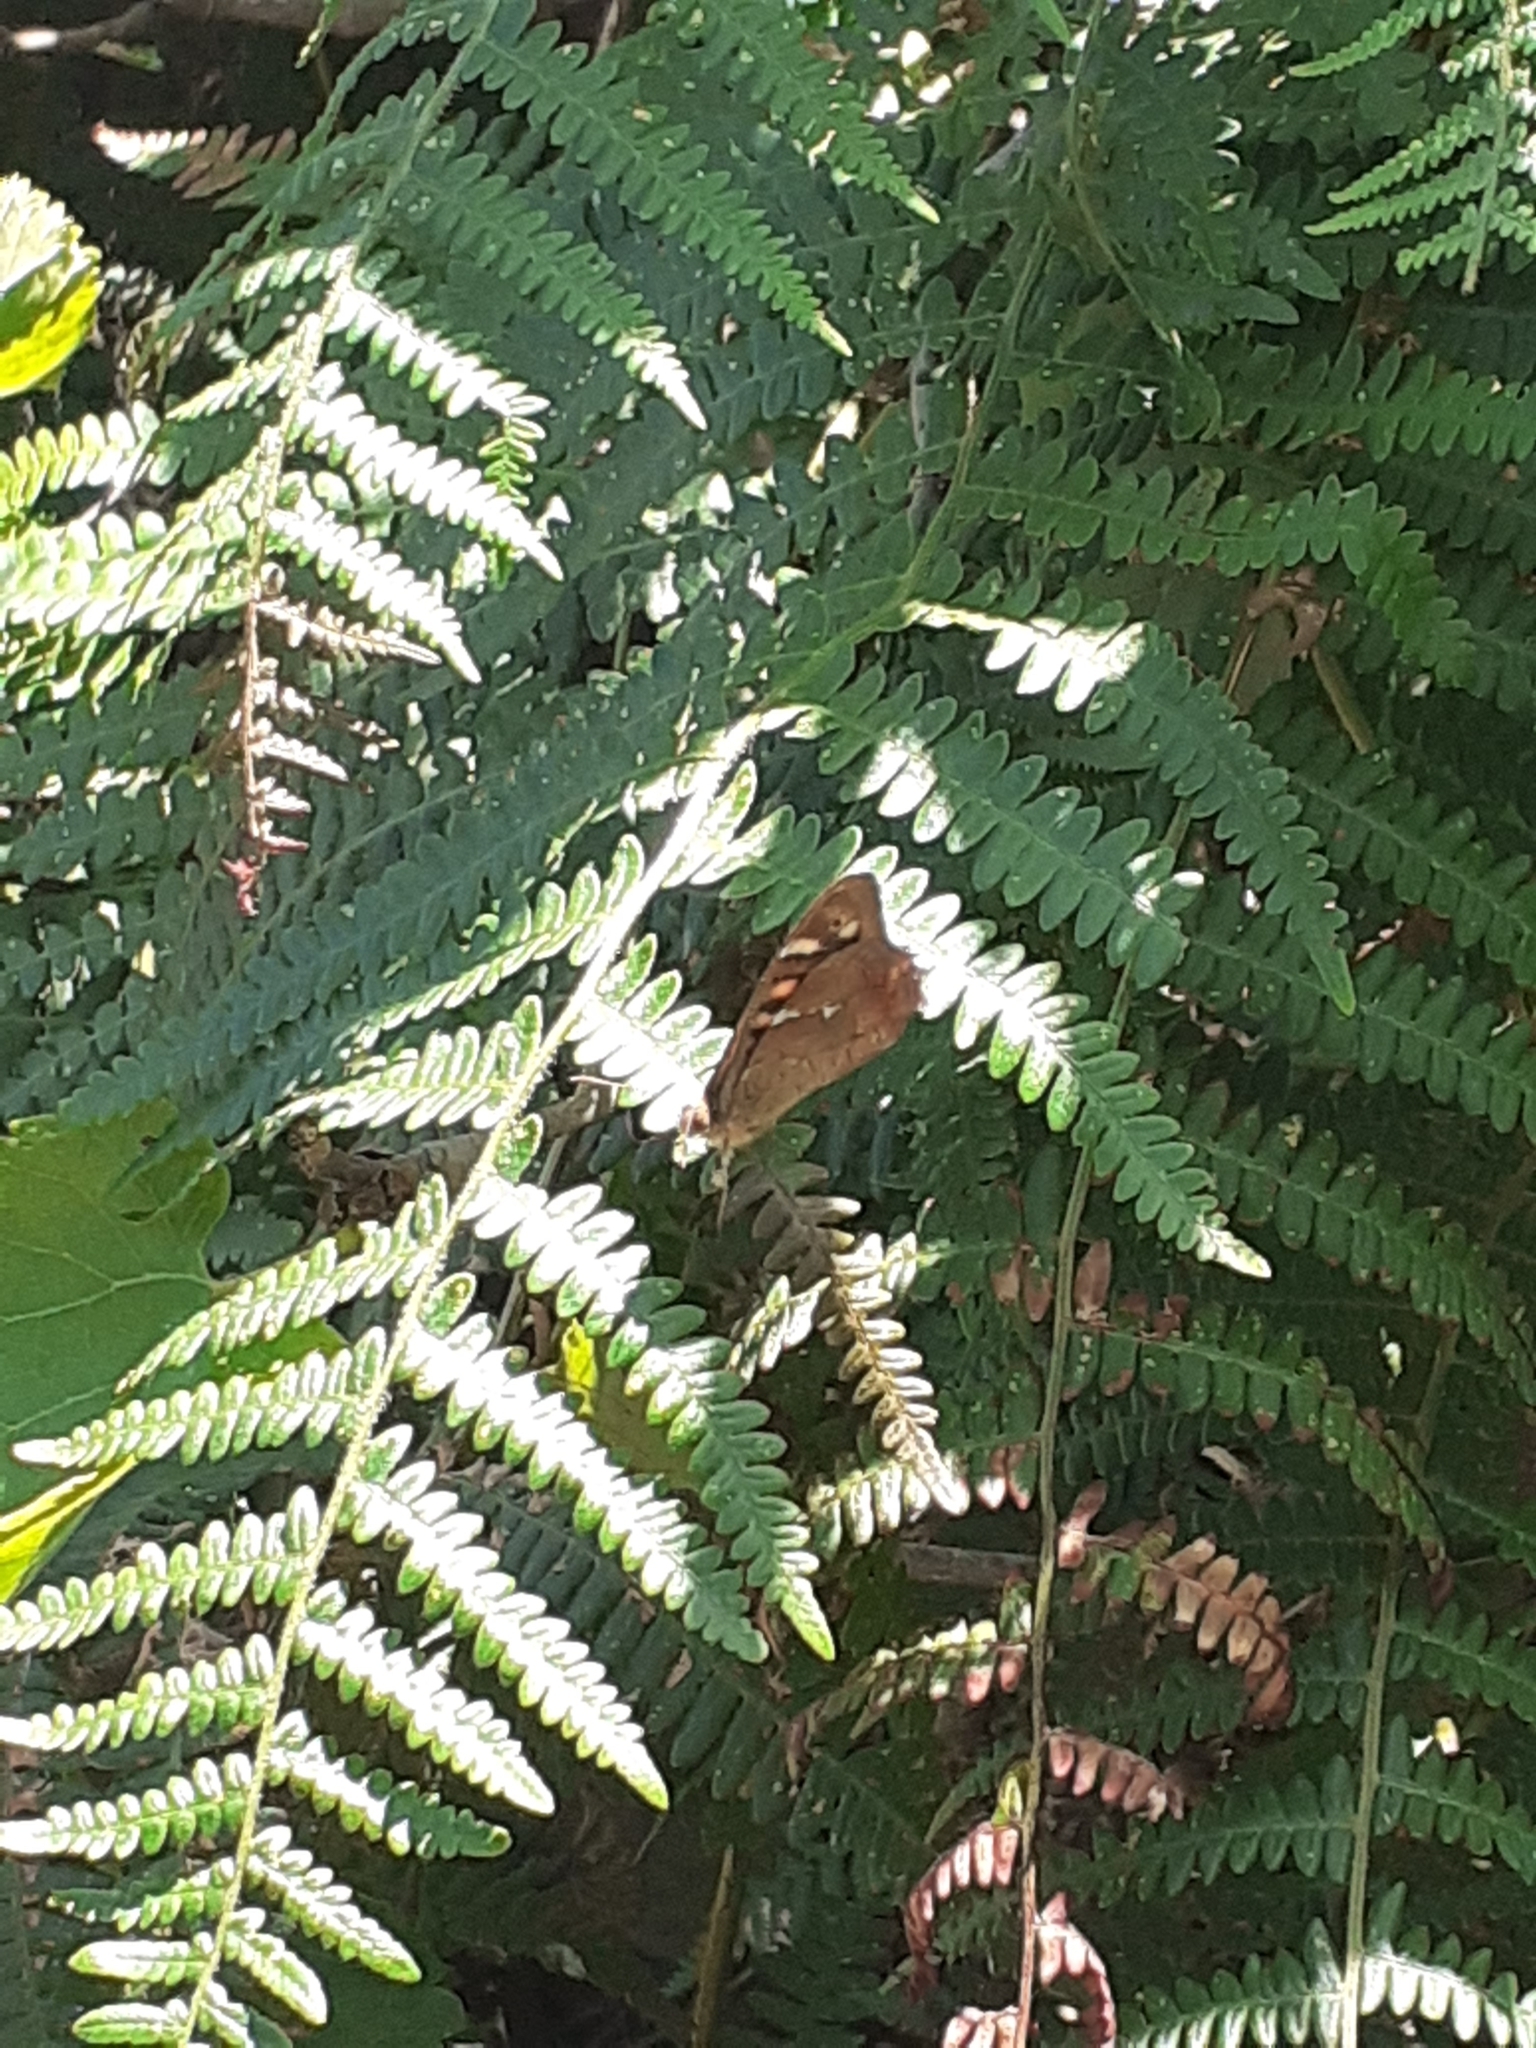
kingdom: Animalia
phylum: Arthropoda
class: Insecta
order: Lepidoptera
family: Nymphalidae
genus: Pararge
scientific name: Pararge aegeria
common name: Speckled wood
